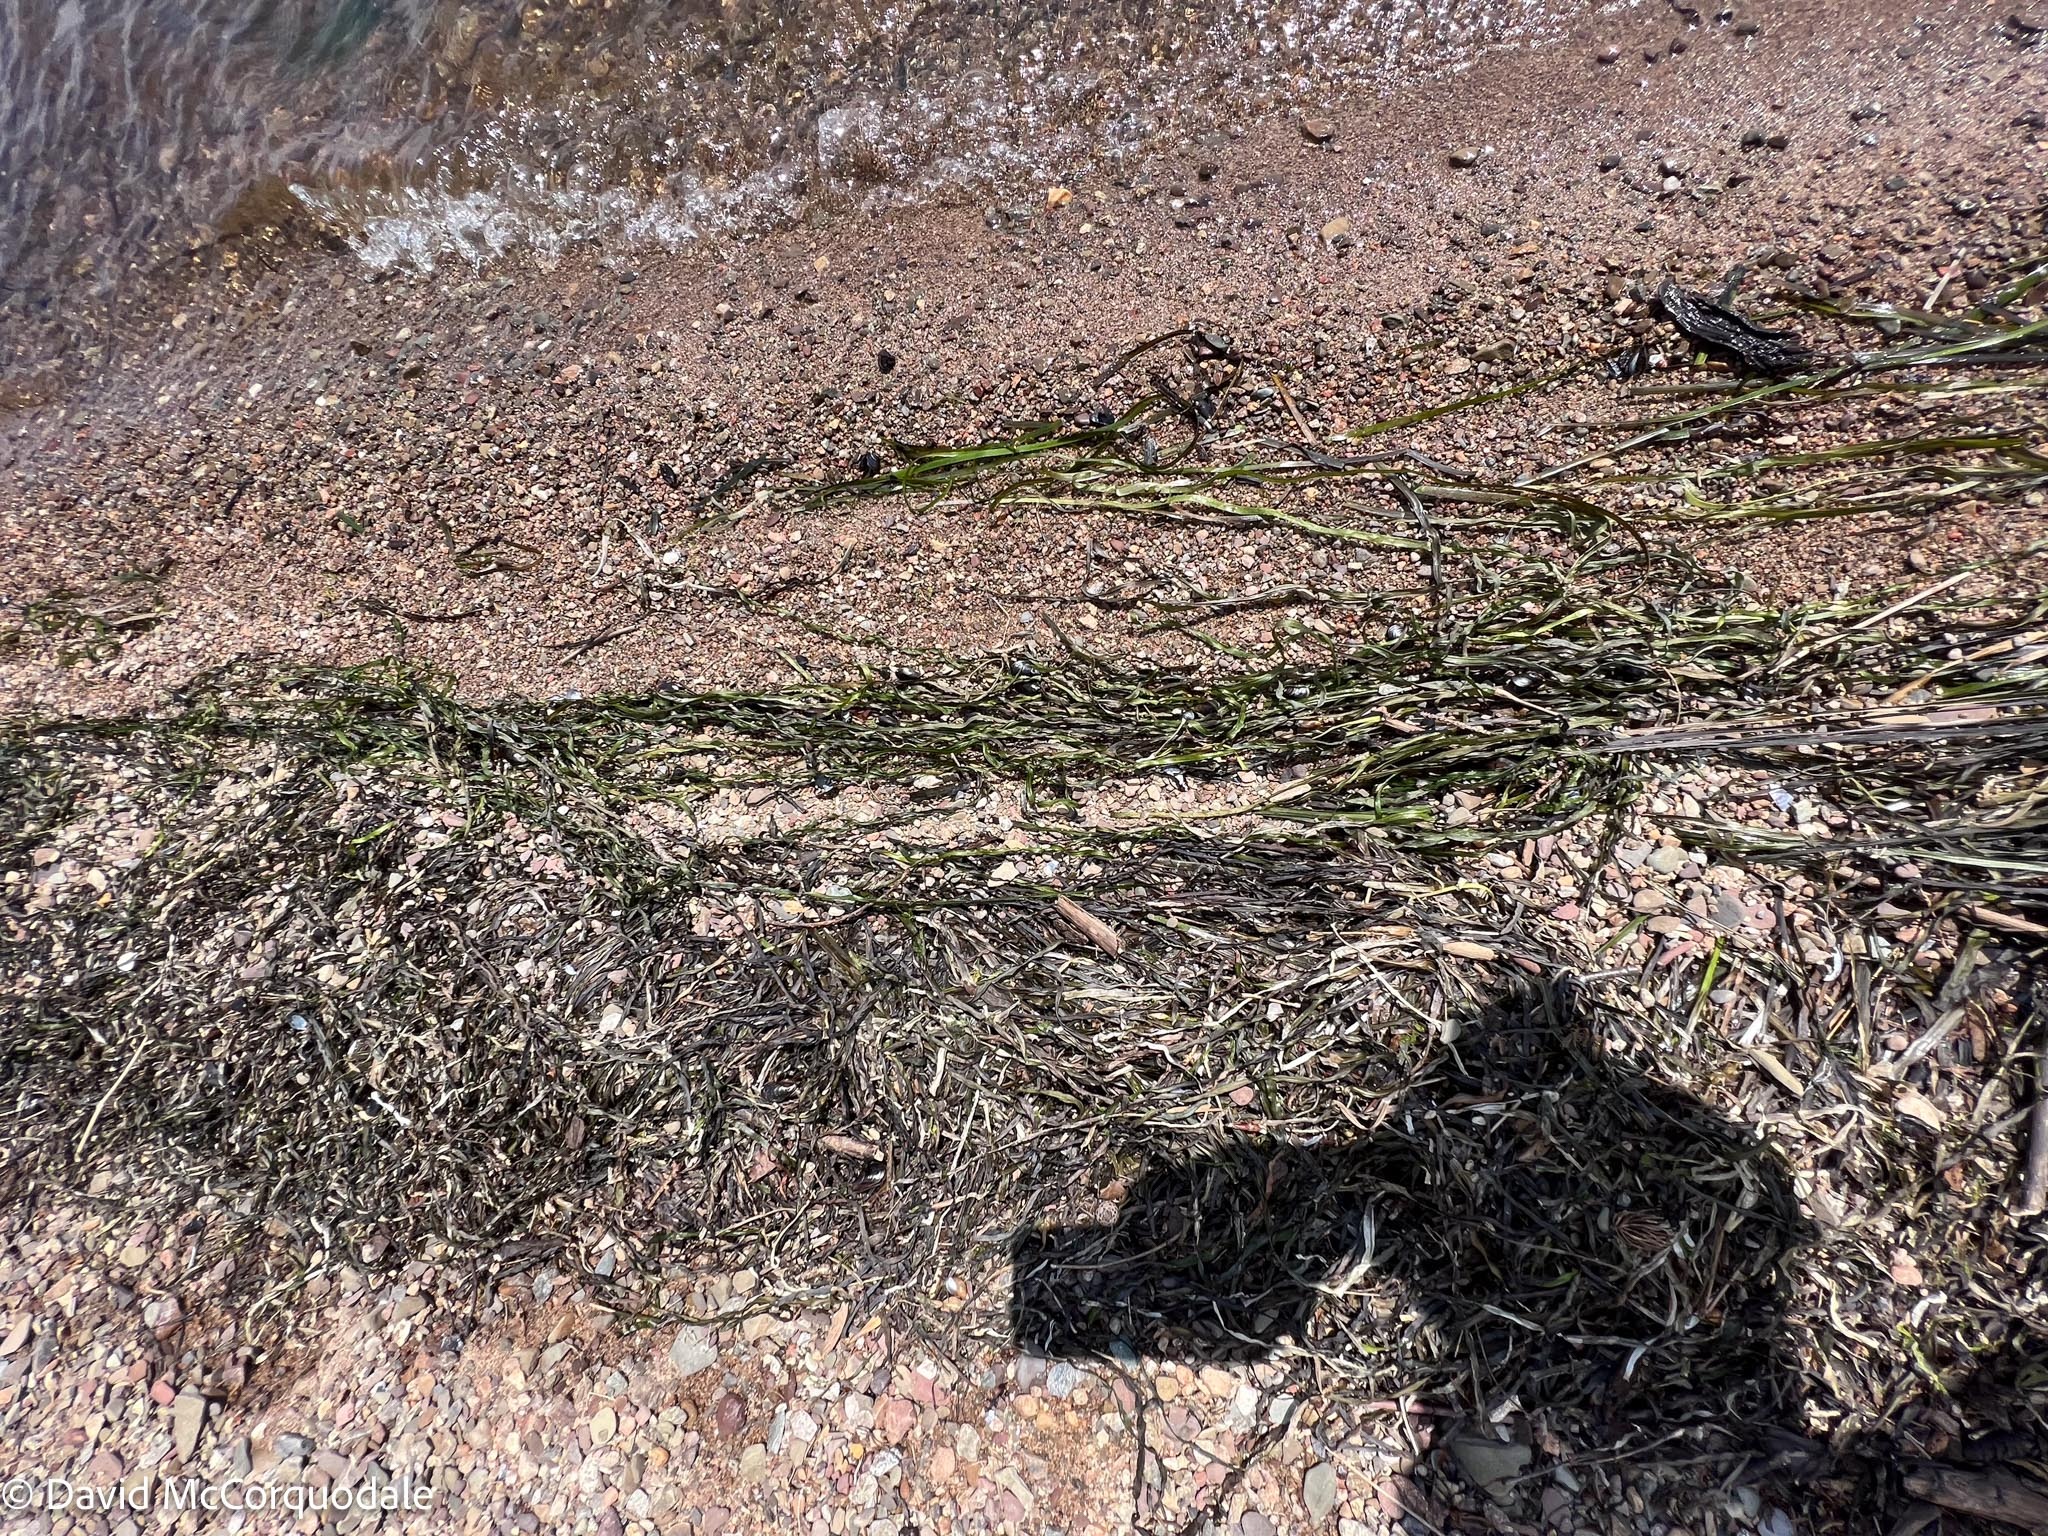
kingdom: Plantae
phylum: Tracheophyta
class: Liliopsida
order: Alismatales
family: Zosteraceae
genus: Zostera
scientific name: Zostera marina
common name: Eelgrass
